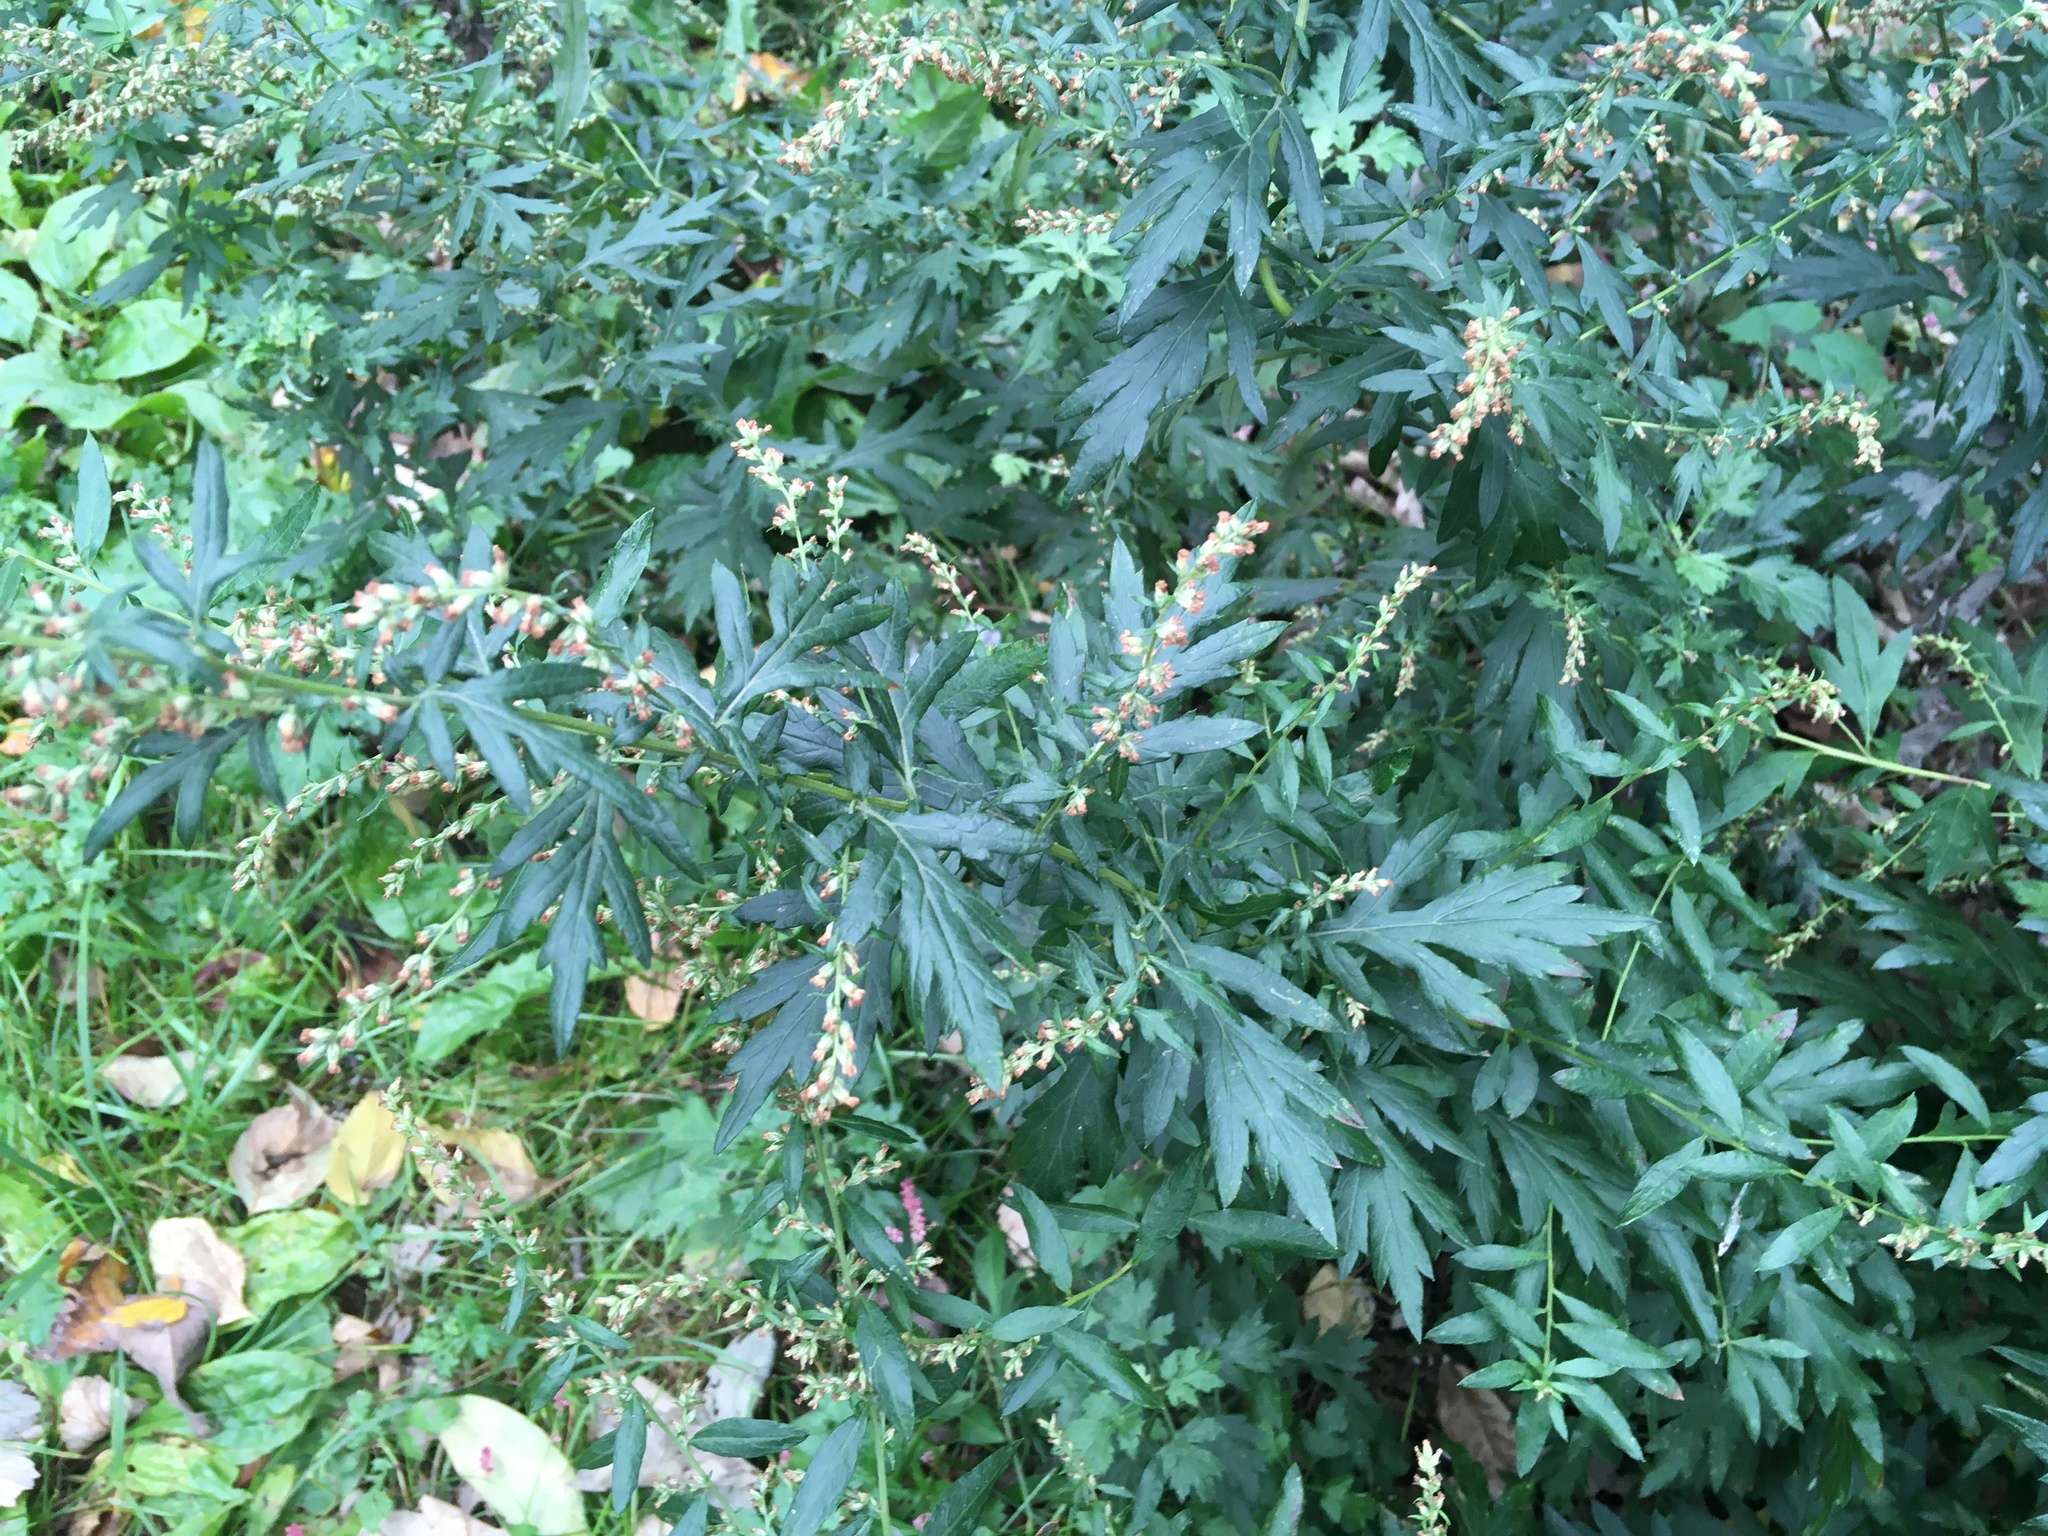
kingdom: Plantae
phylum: Tracheophyta
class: Magnoliopsida
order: Asterales
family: Asteraceae
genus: Artemisia
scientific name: Artemisia vulgaris
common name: Mugwort
